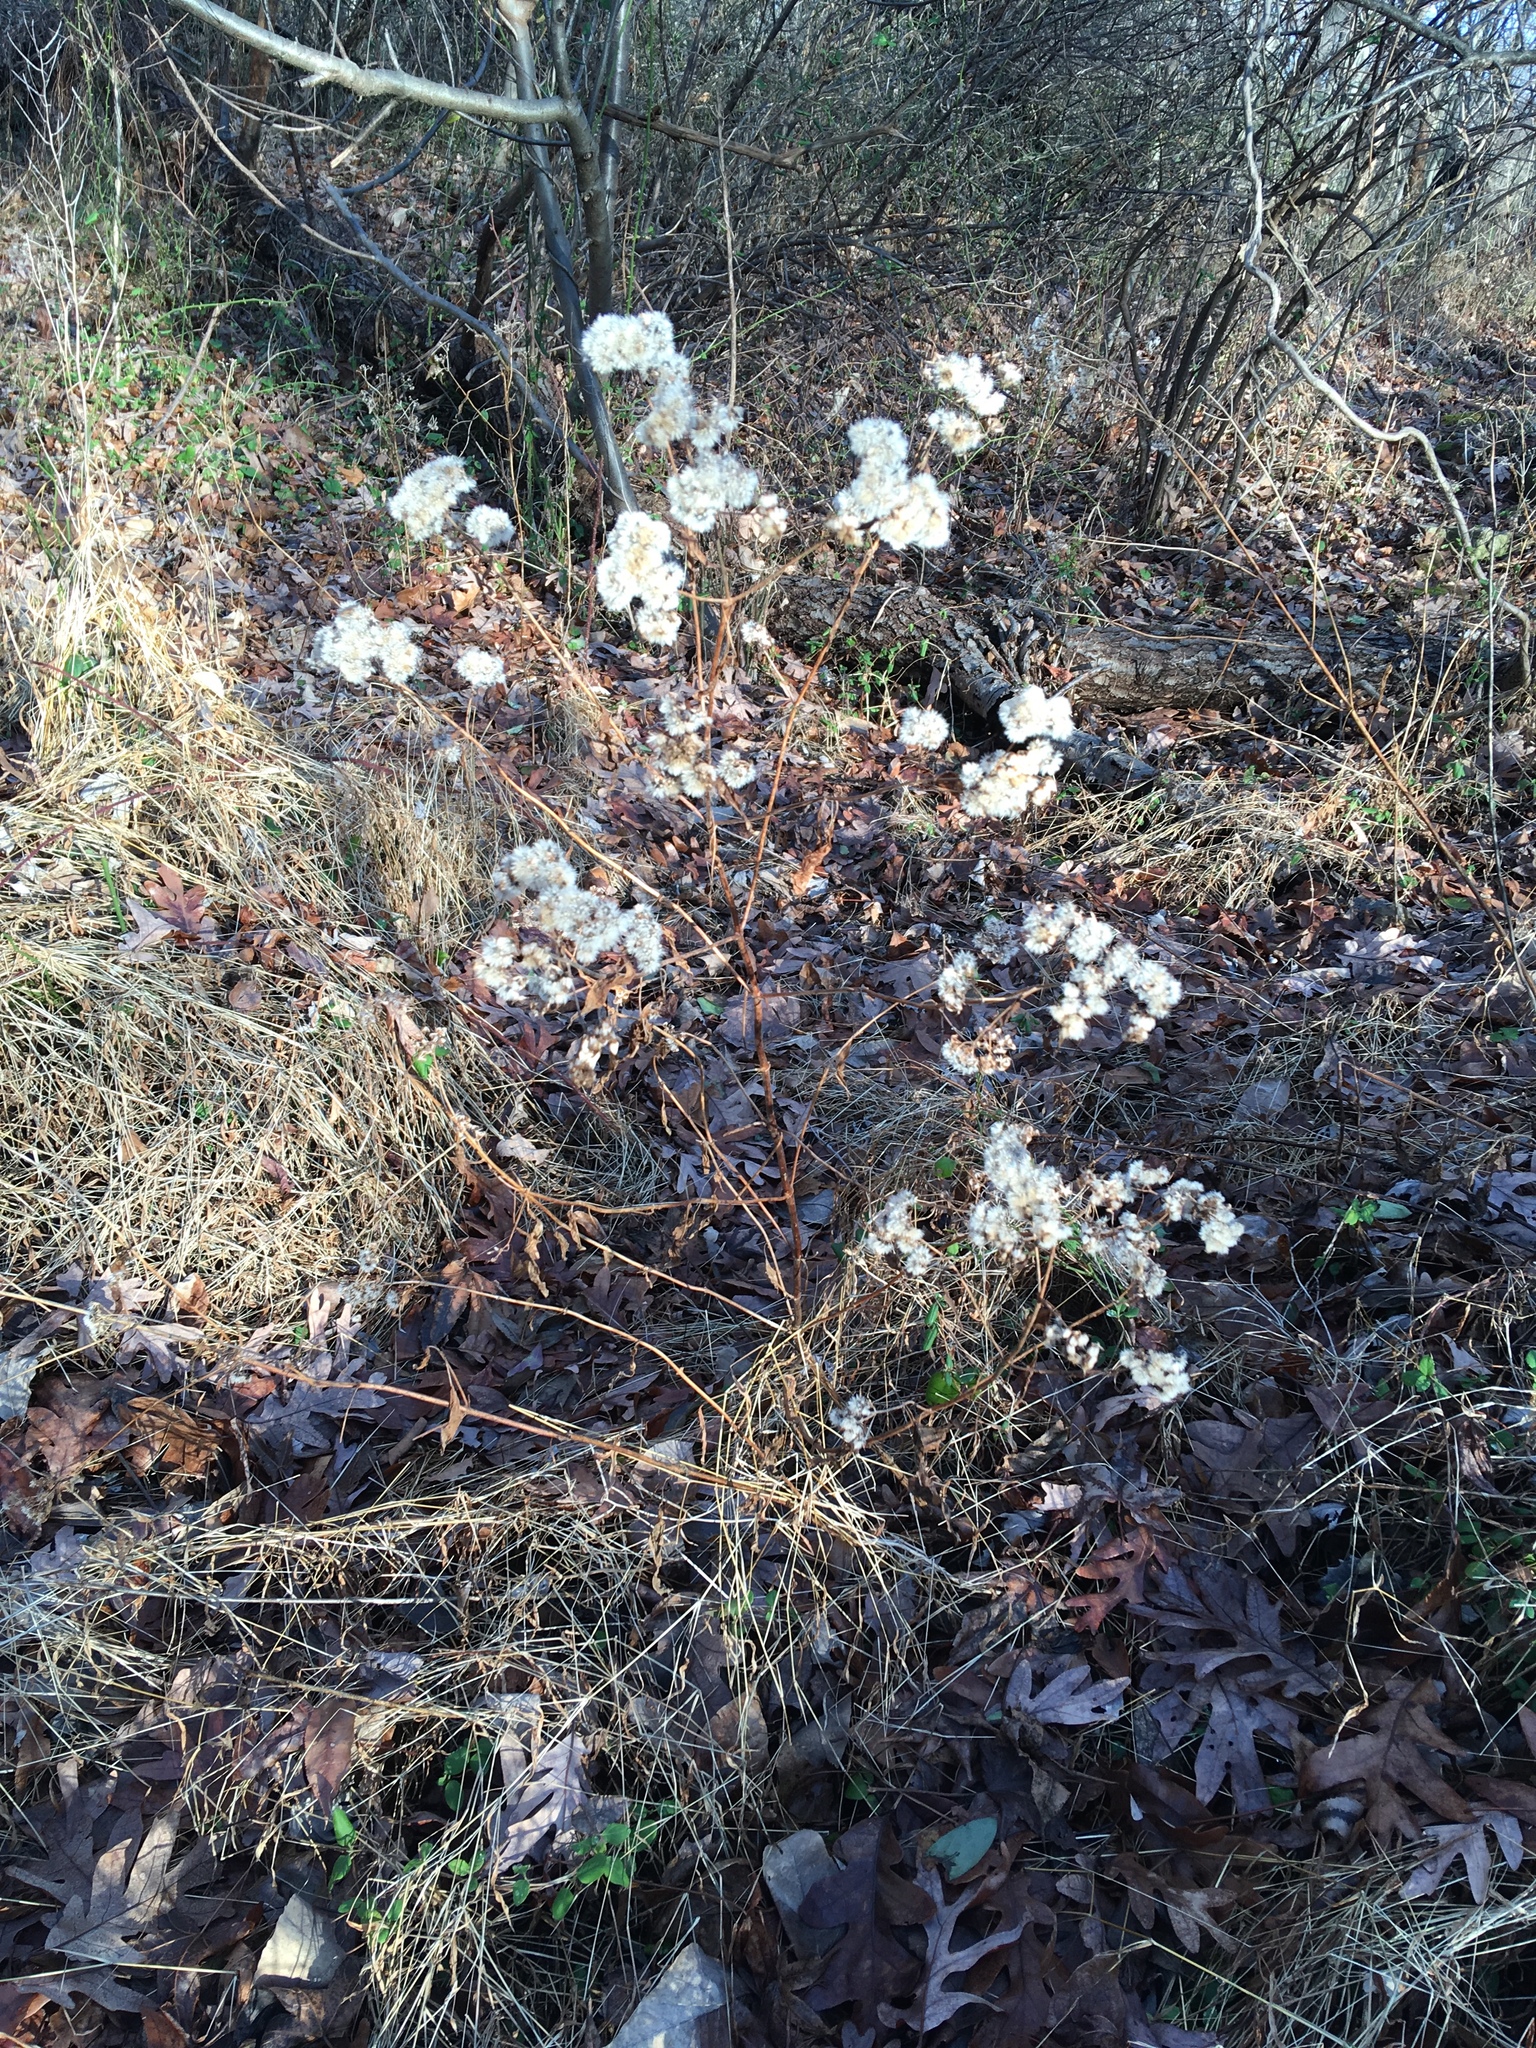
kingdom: Plantae
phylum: Tracheophyta
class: Magnoliopsida
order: Asterales
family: Asteraceae
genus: Ageratina
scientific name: Ageratina altissima
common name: White snakeroot
